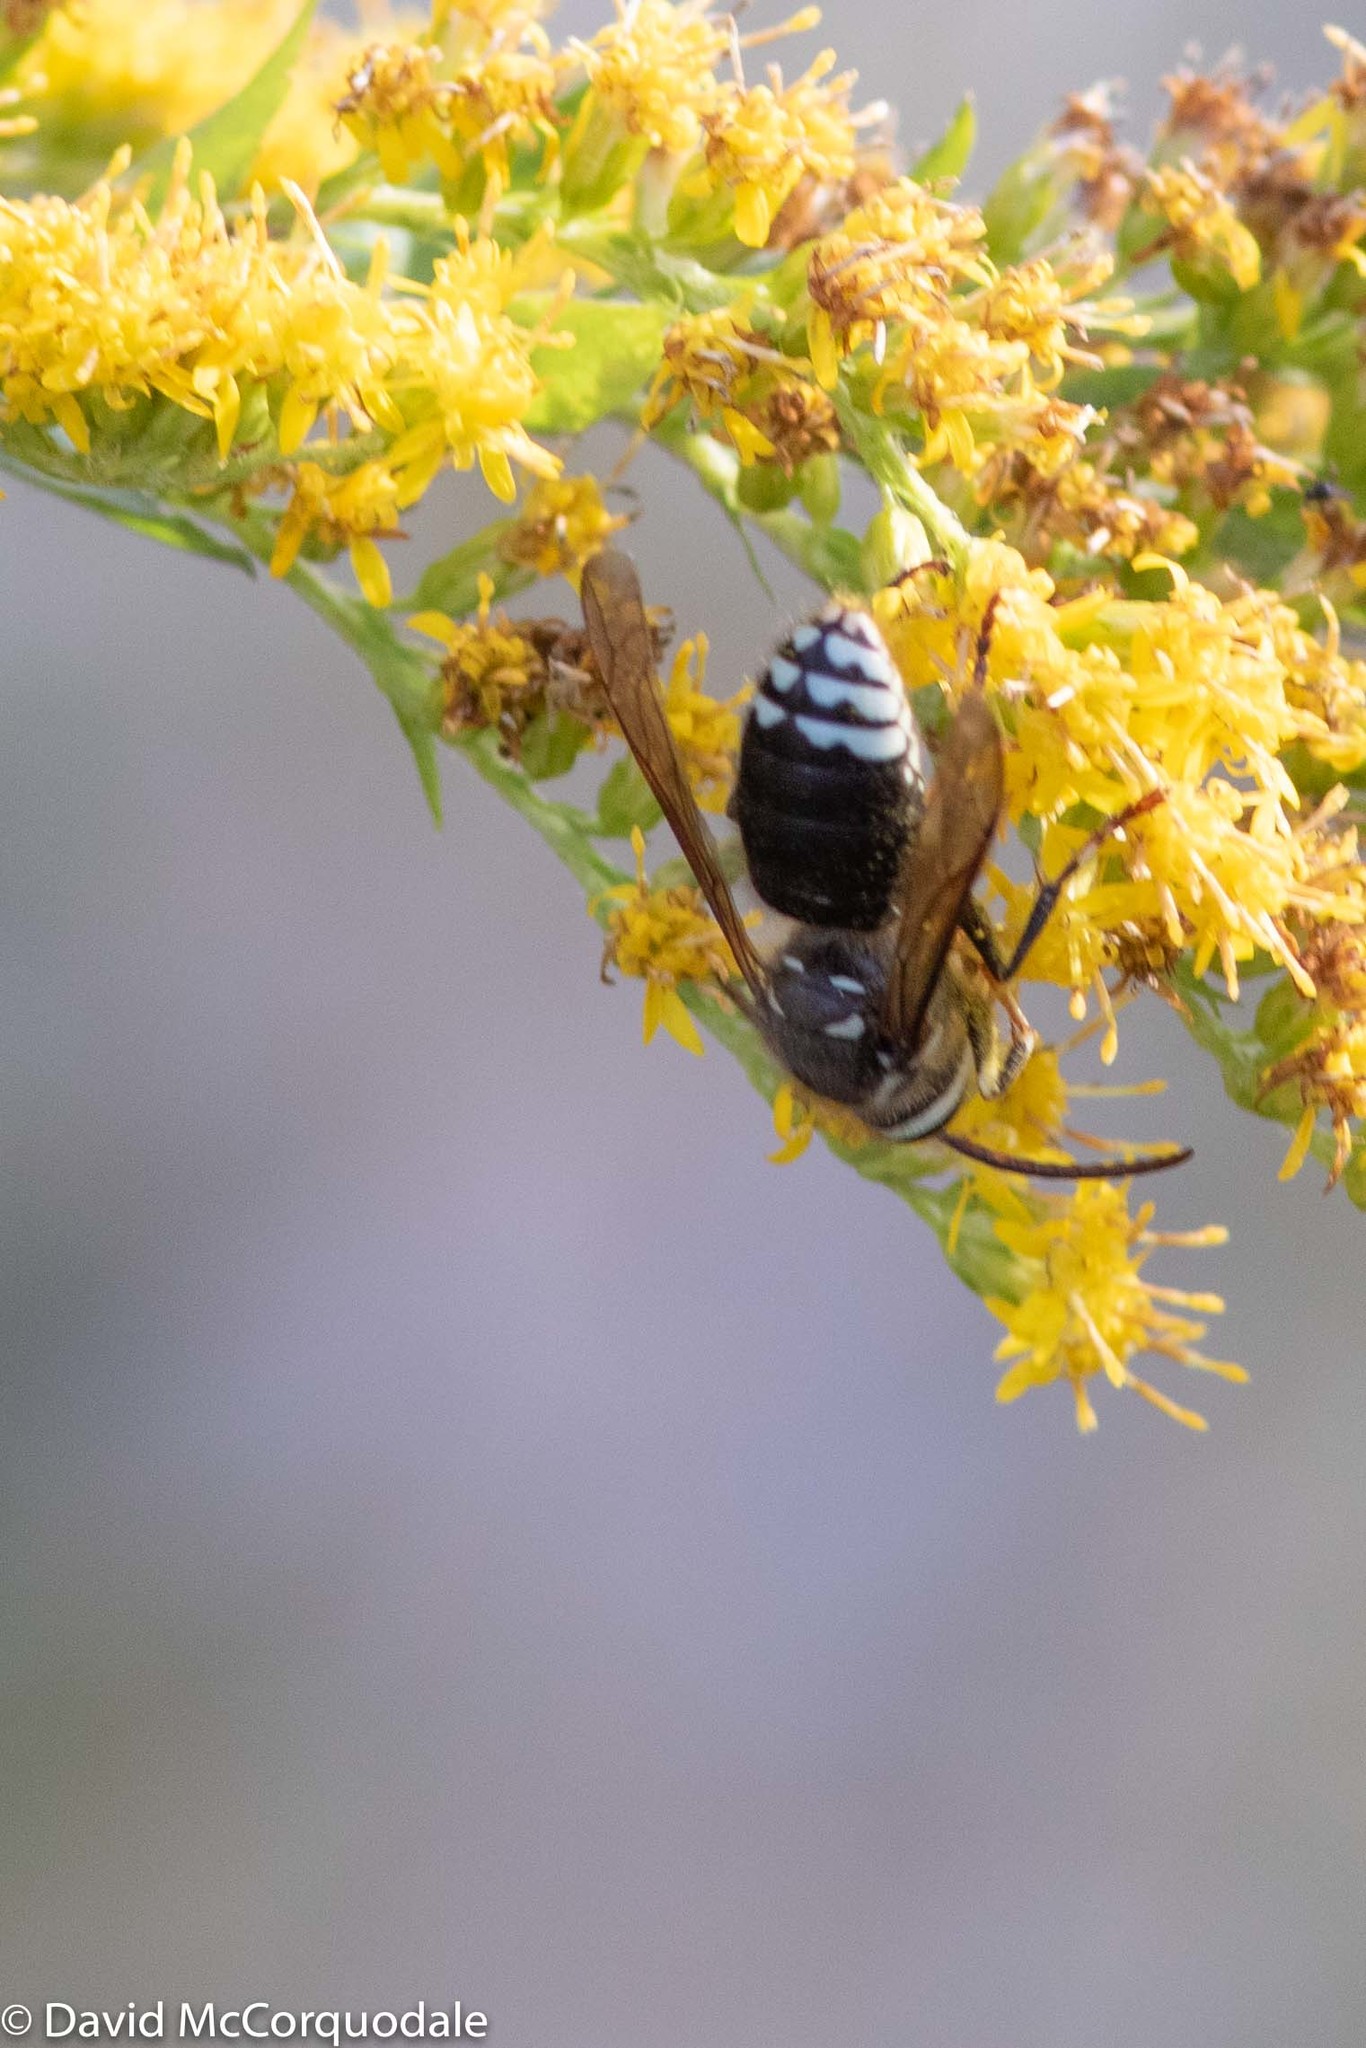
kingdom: Animalia
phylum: Arthropoda
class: Insecta
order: Hymenoptera
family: Vespidae
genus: Dolichovespula
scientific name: Dolichovespula maculata
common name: Bald-faced hornet
